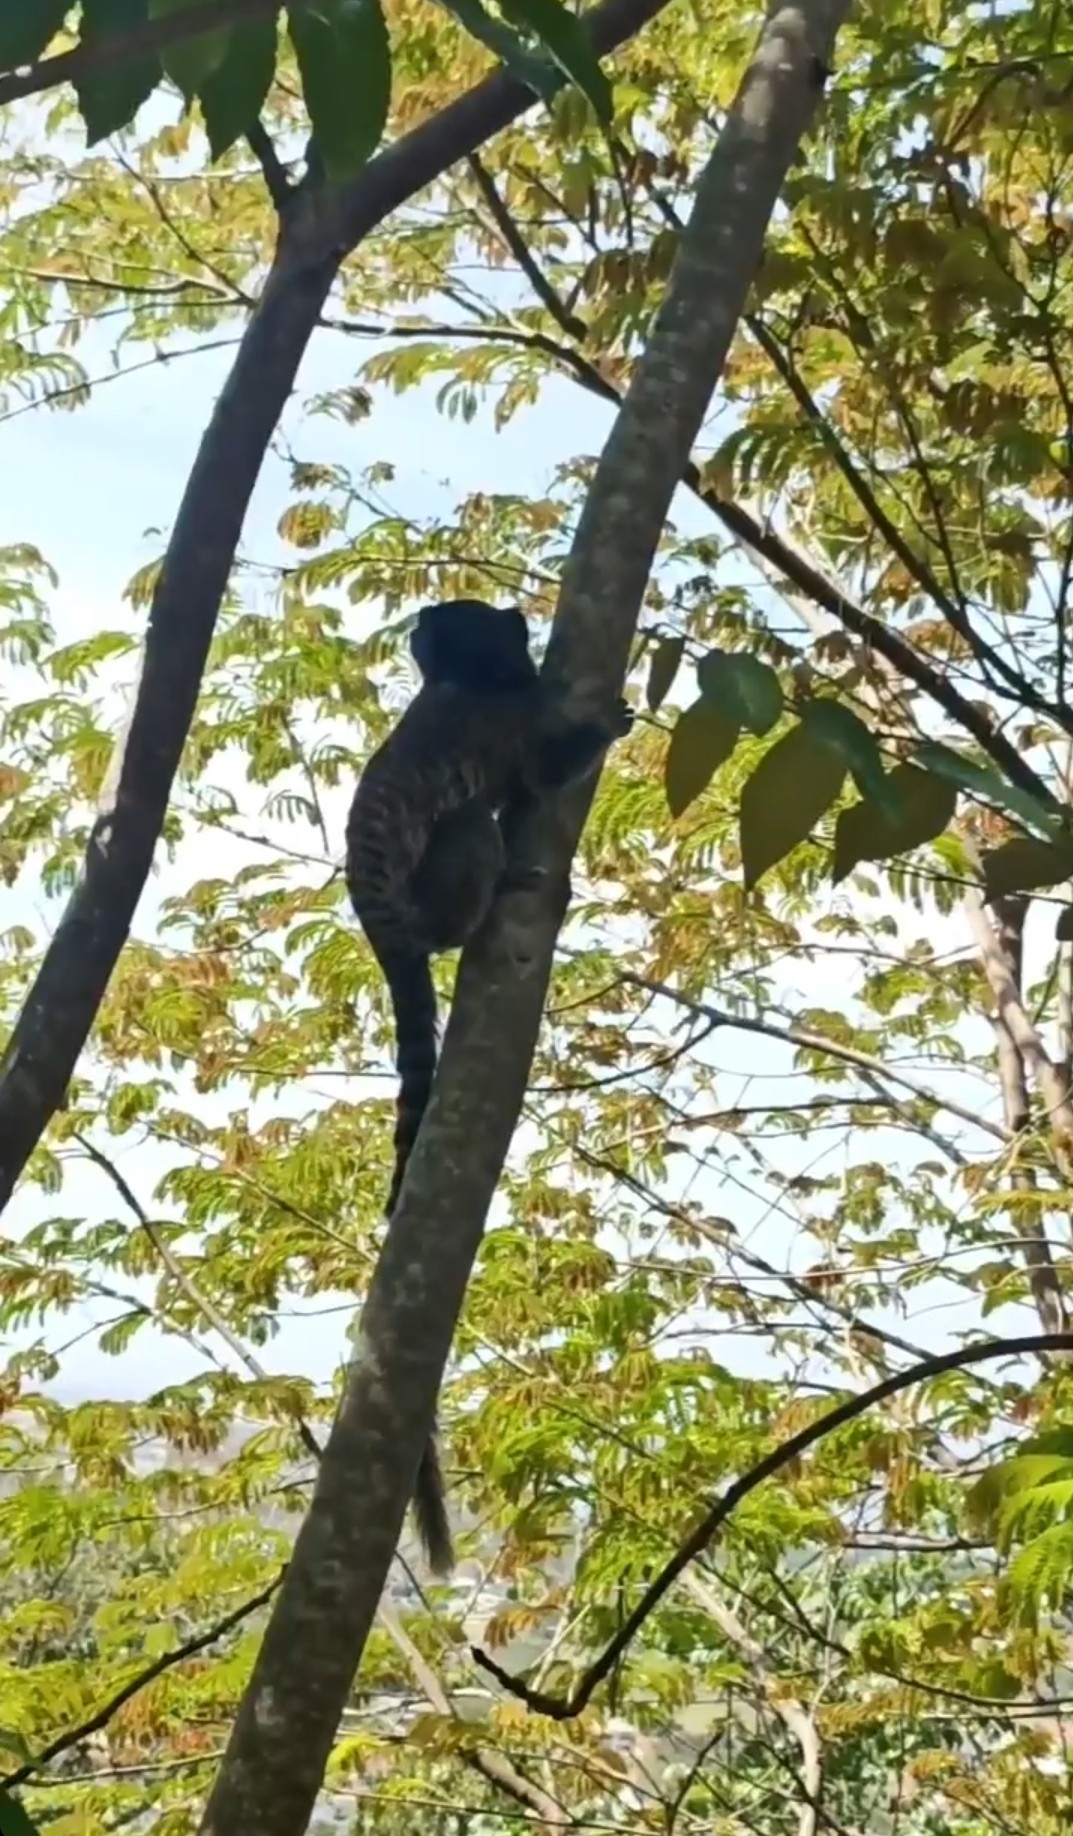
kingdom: Animalia
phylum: Chordata
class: Mammalia
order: Primates
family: Callitrichidae
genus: Callithrix
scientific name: Callithrix penicillata
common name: Black-tufted marmoset
